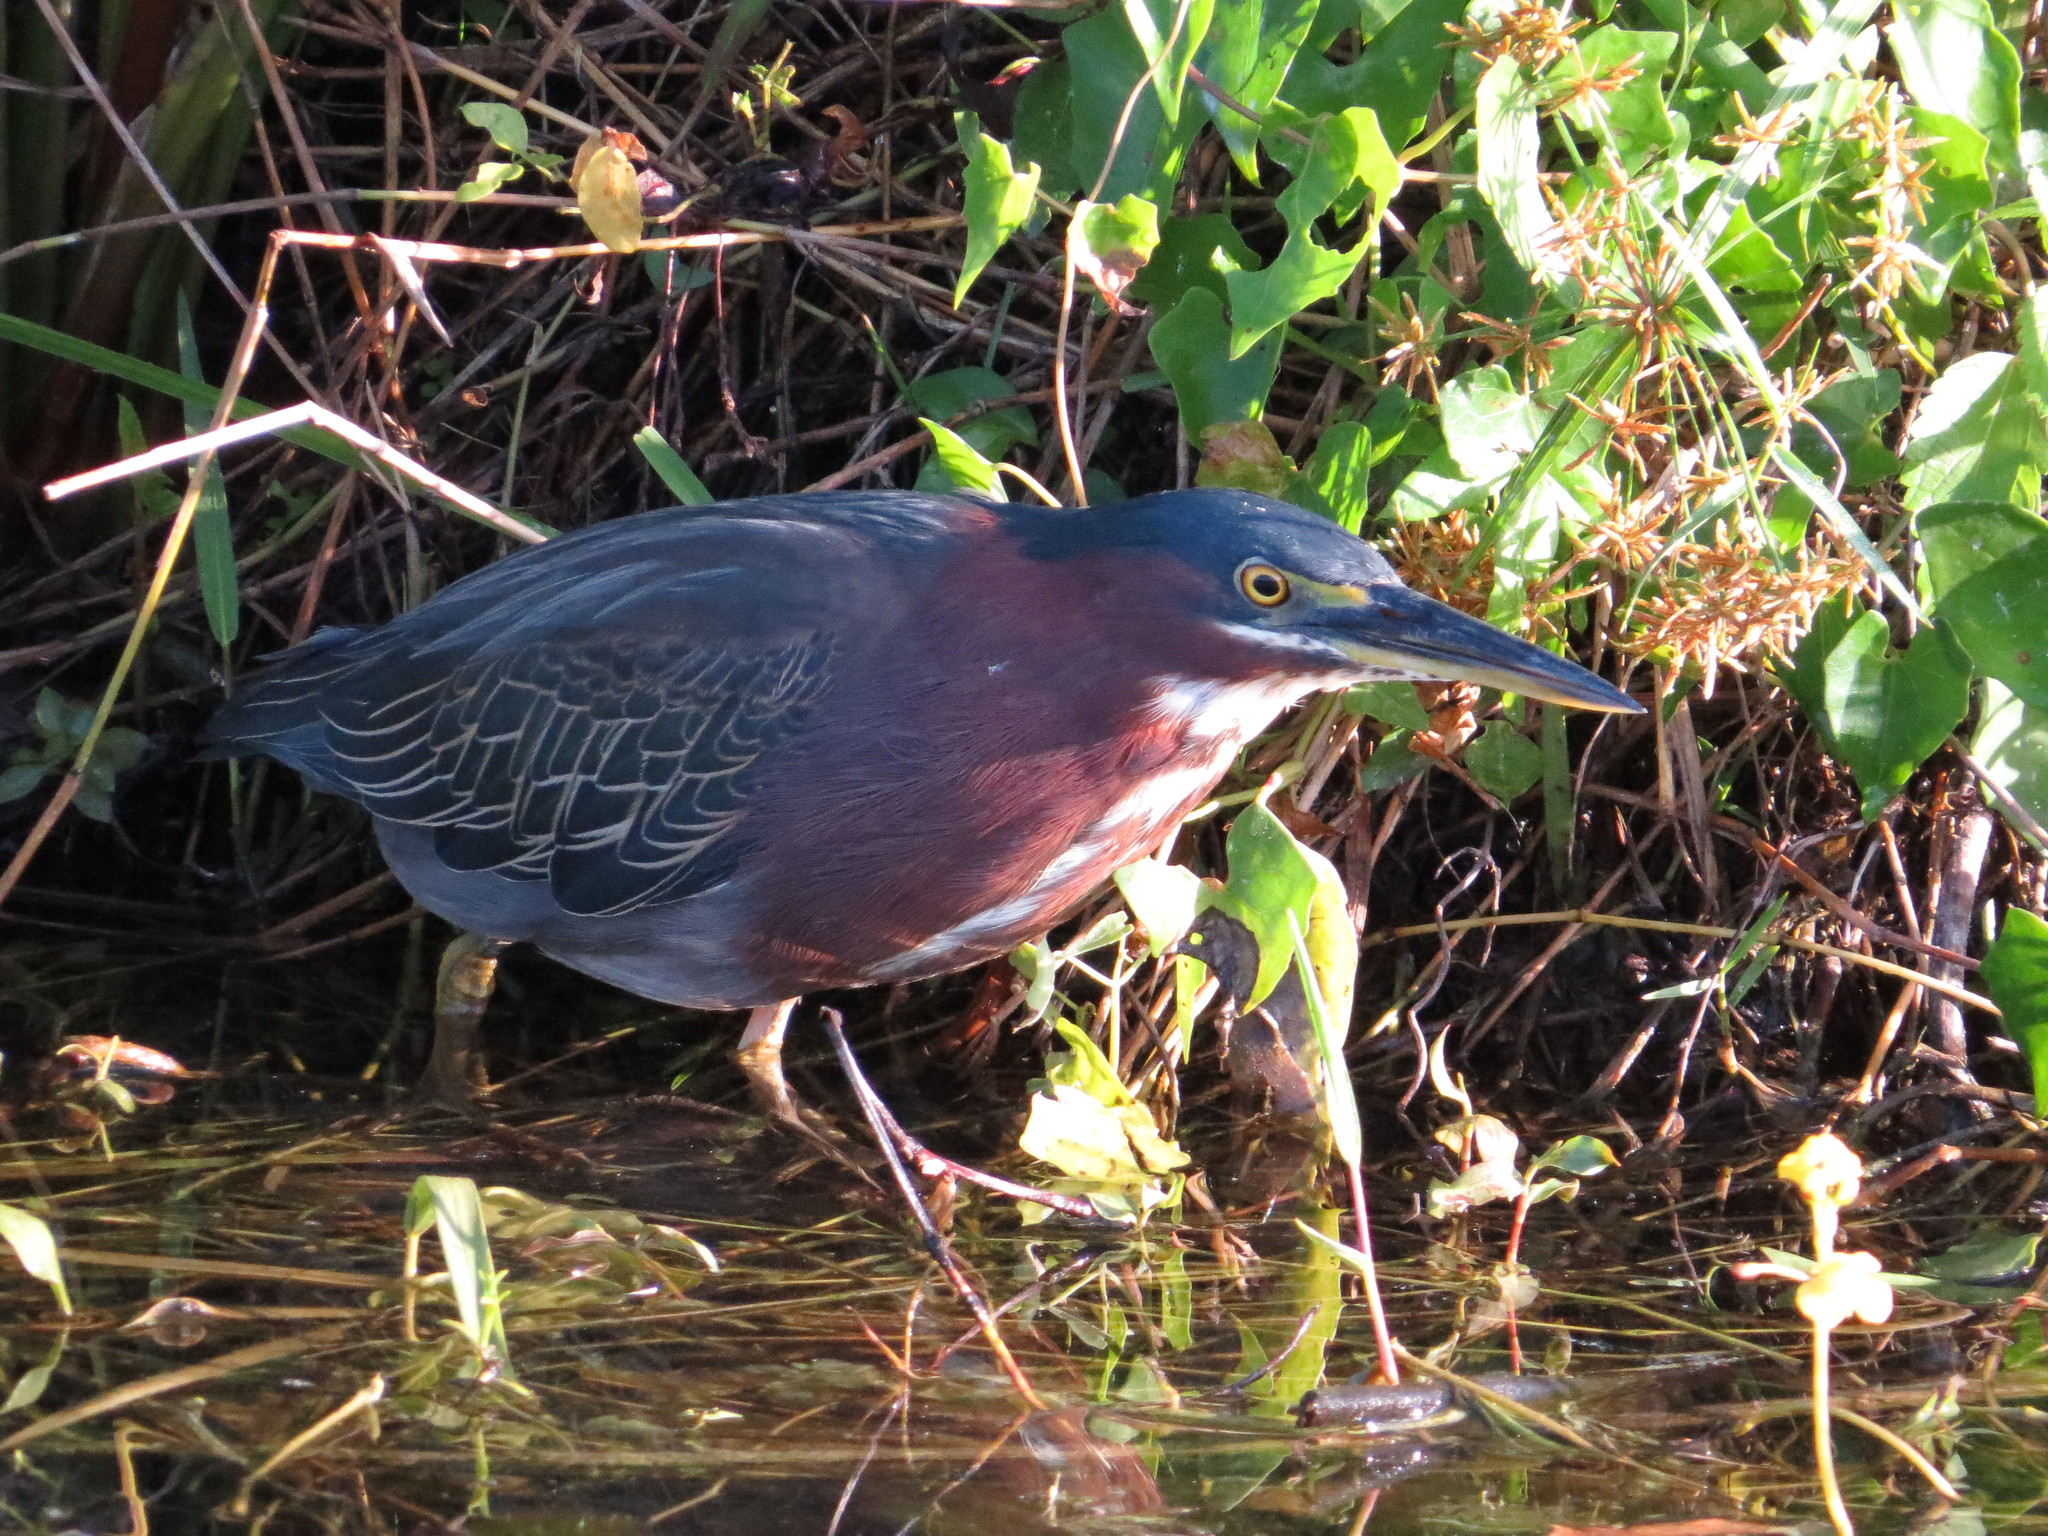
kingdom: Animalia
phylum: Chordata
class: Aves
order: Pelecaniformes
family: Ardeidae
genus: Butorides
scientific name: Butorides virescens
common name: Green heron
